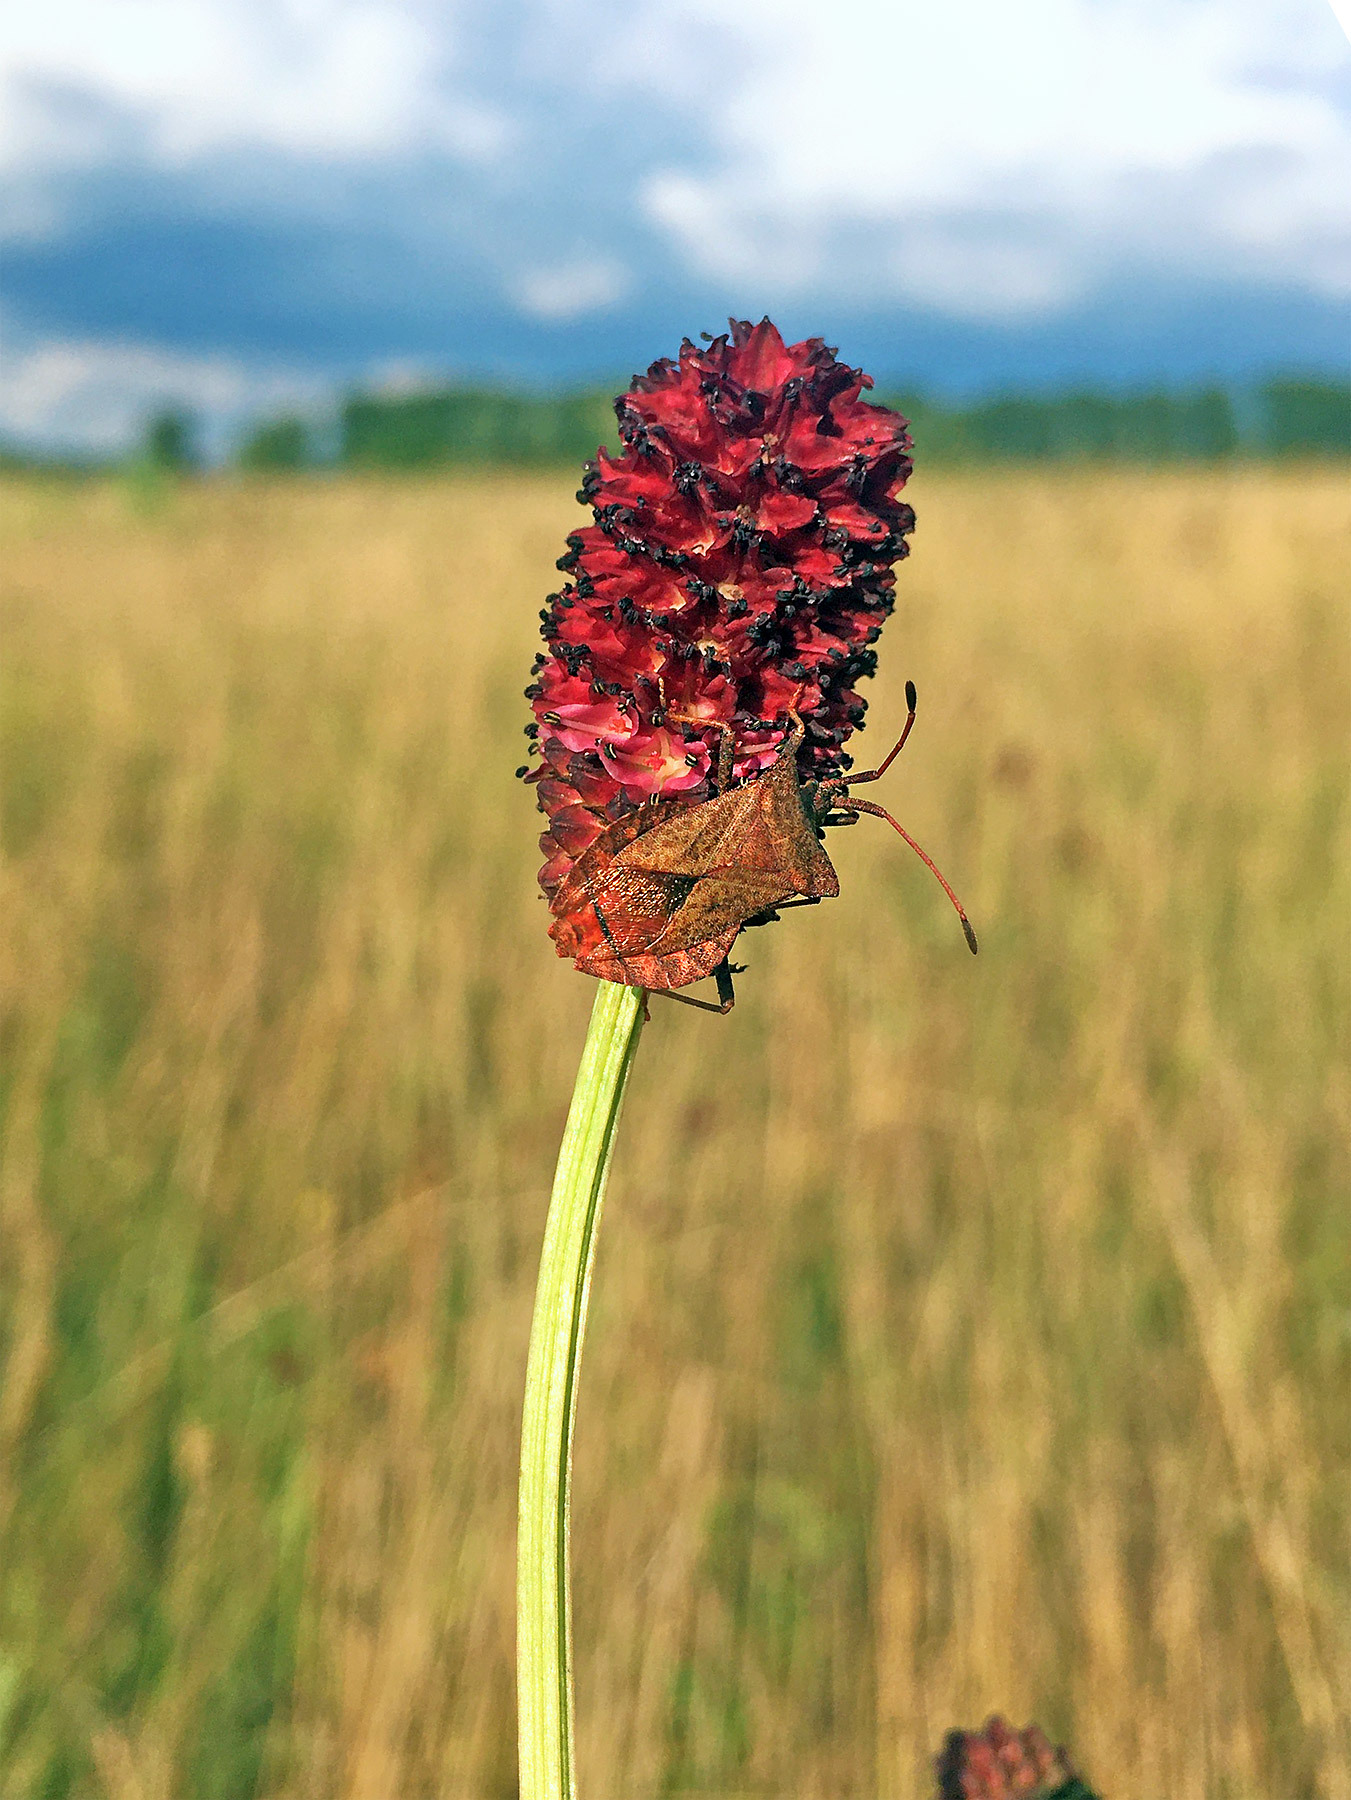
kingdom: Animalia
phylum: Arthropoda
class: Insecta
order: Hemiptera
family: Coreidae
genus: Coreus
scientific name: Coreus marginatus
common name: Dock bug
